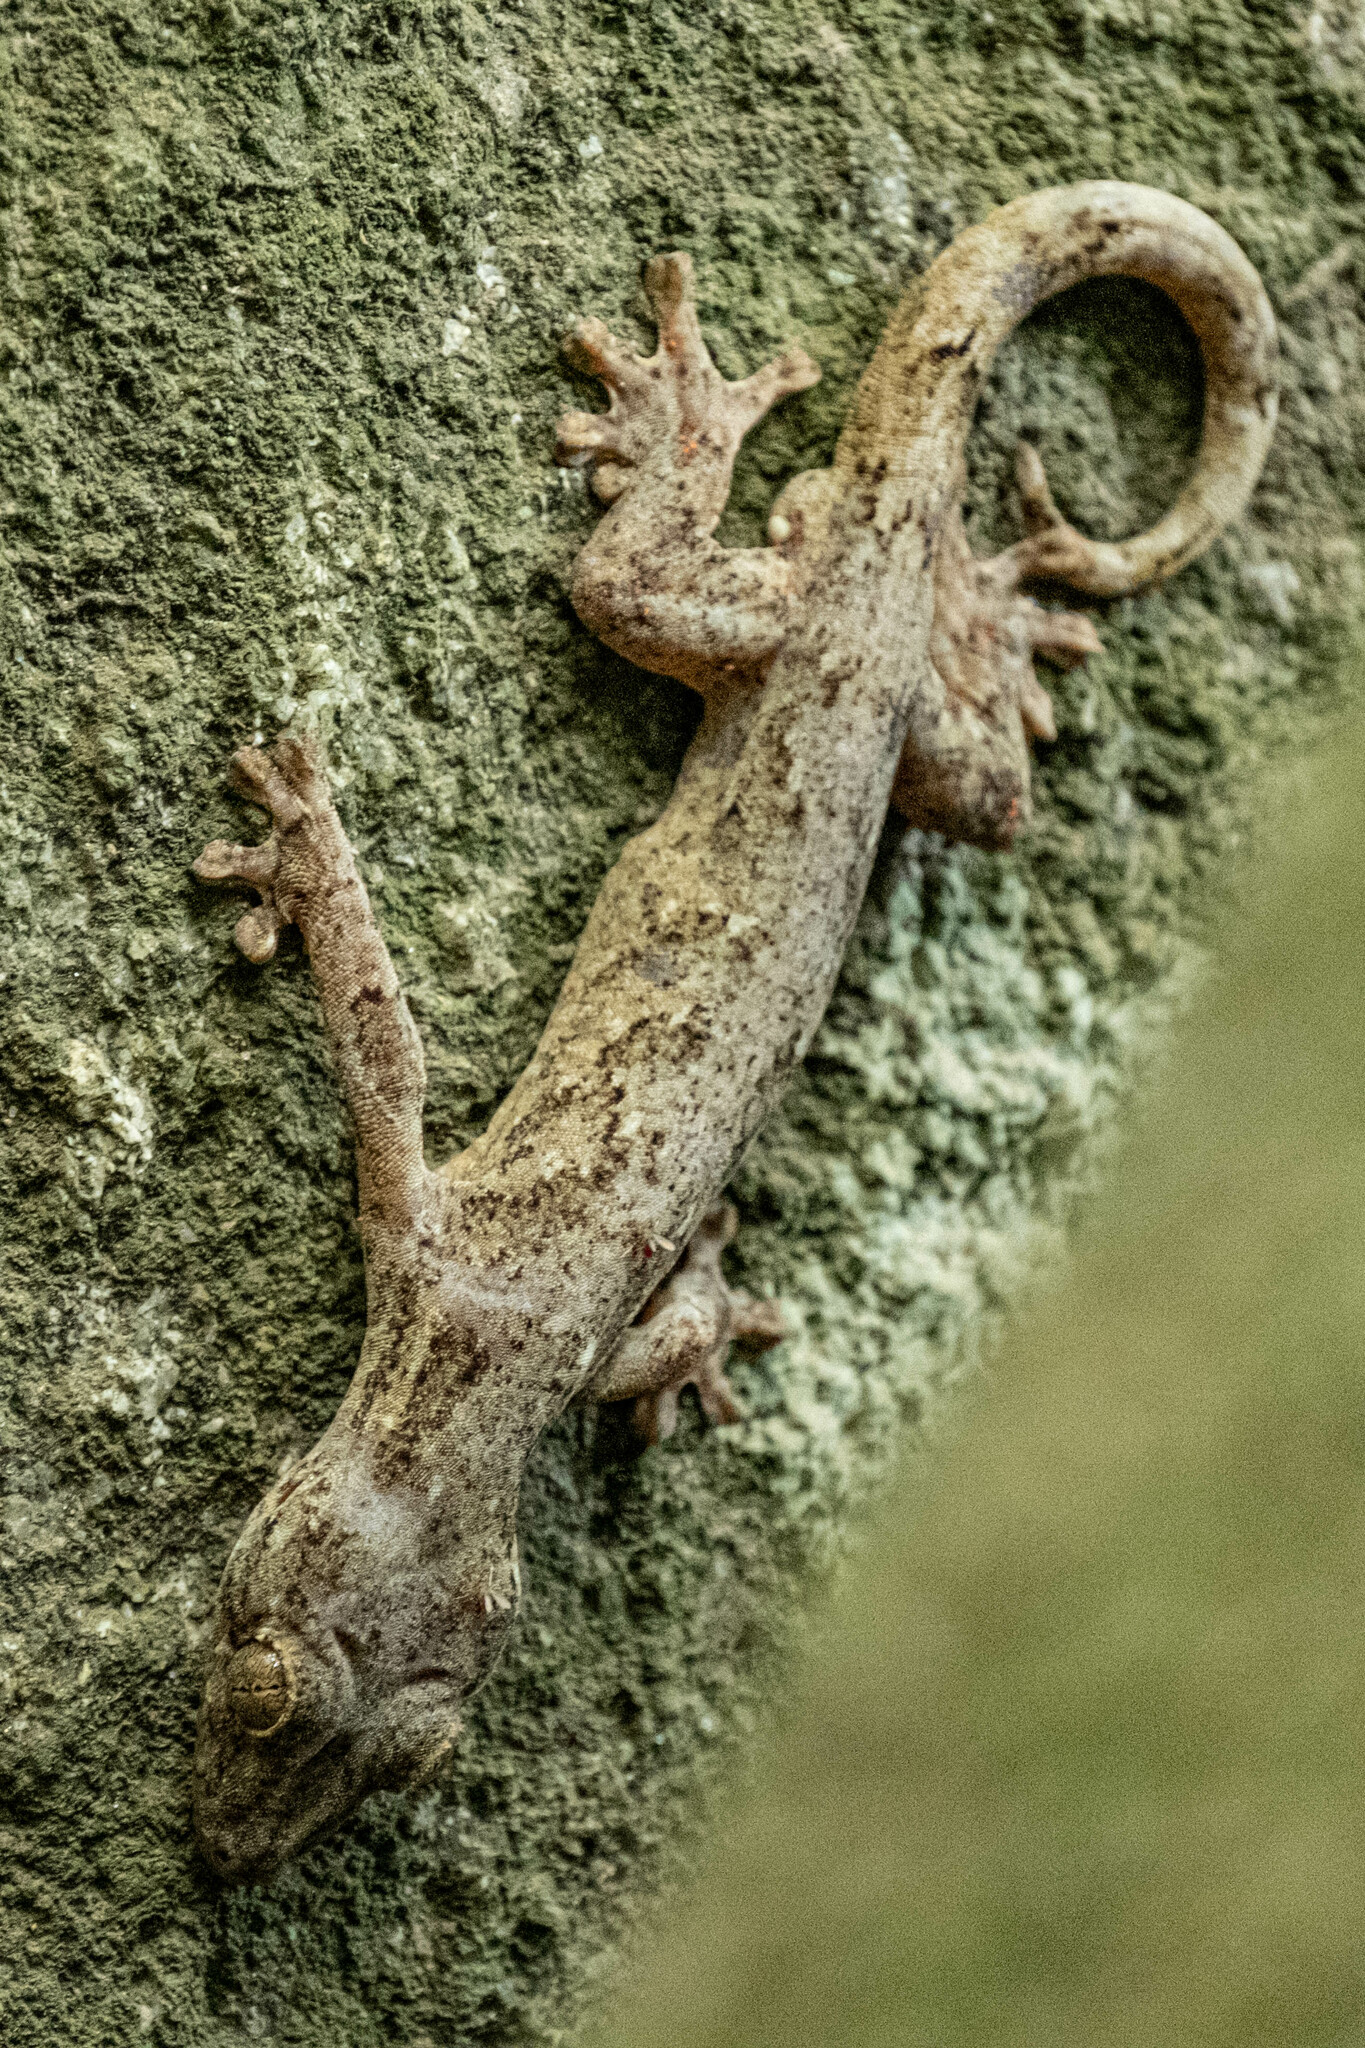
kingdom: Animalia
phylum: Chordata
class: Squamata
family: Phyllodactylidae
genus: Thecadactylus
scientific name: Thecadactylus rapicauda
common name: Turnip-tailed gecko
